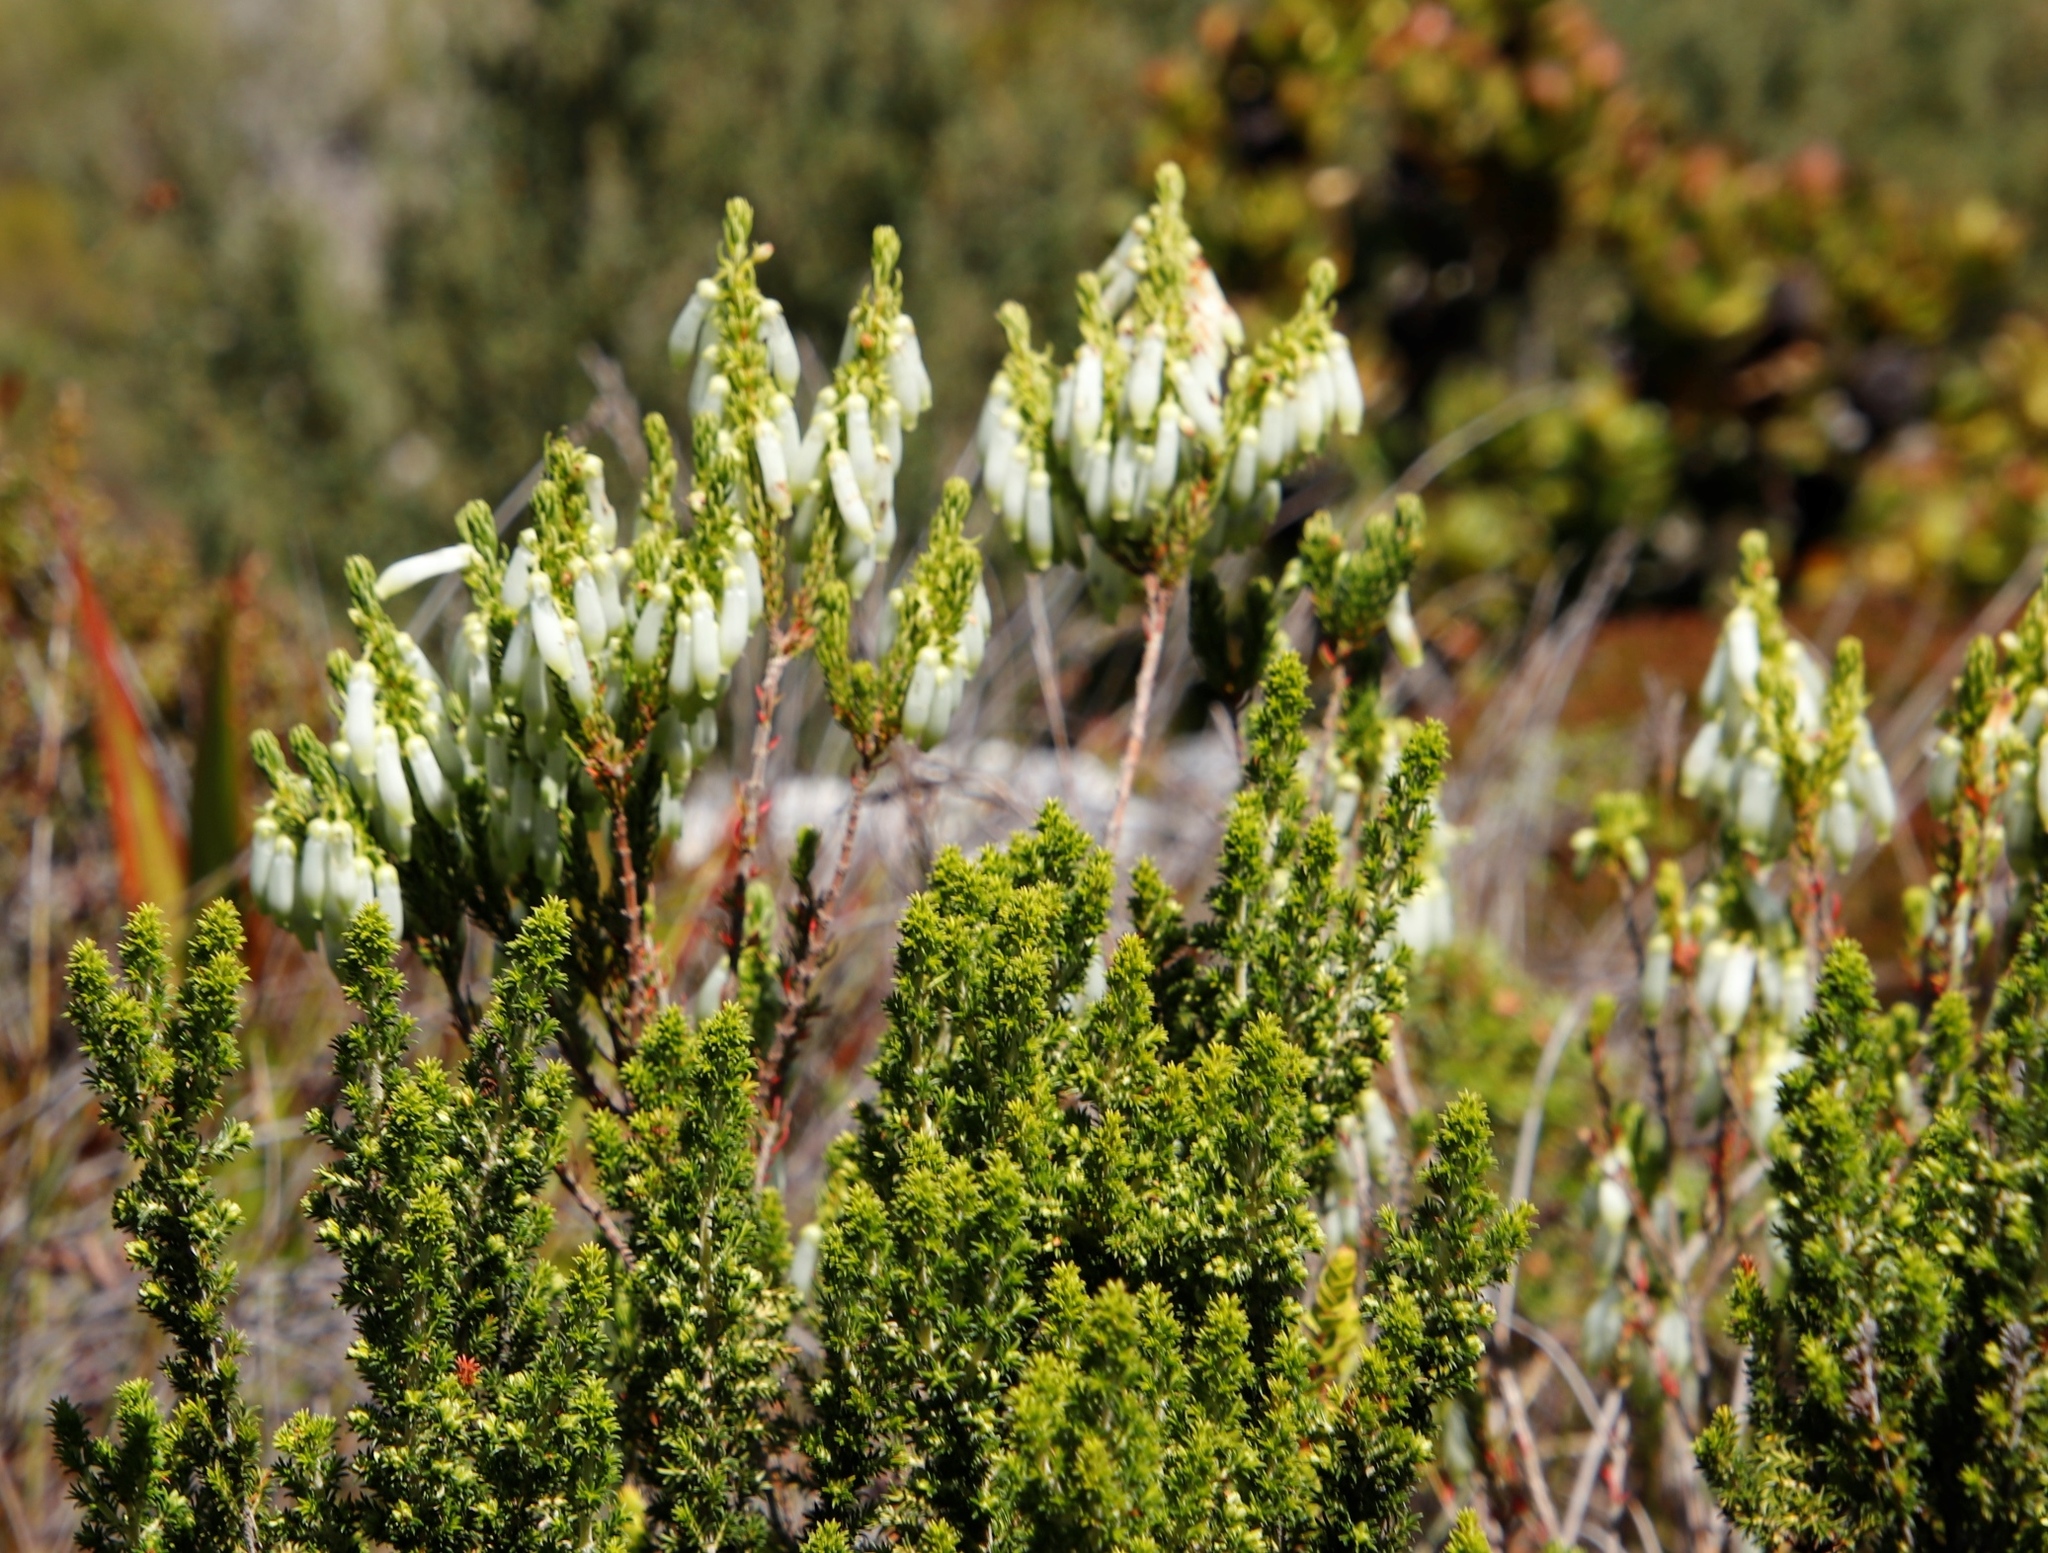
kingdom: Plantae
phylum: Tracheophyta
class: Magnoliopsida
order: Ericales
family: Ericaceae
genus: Erica
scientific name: Erica mammosa
